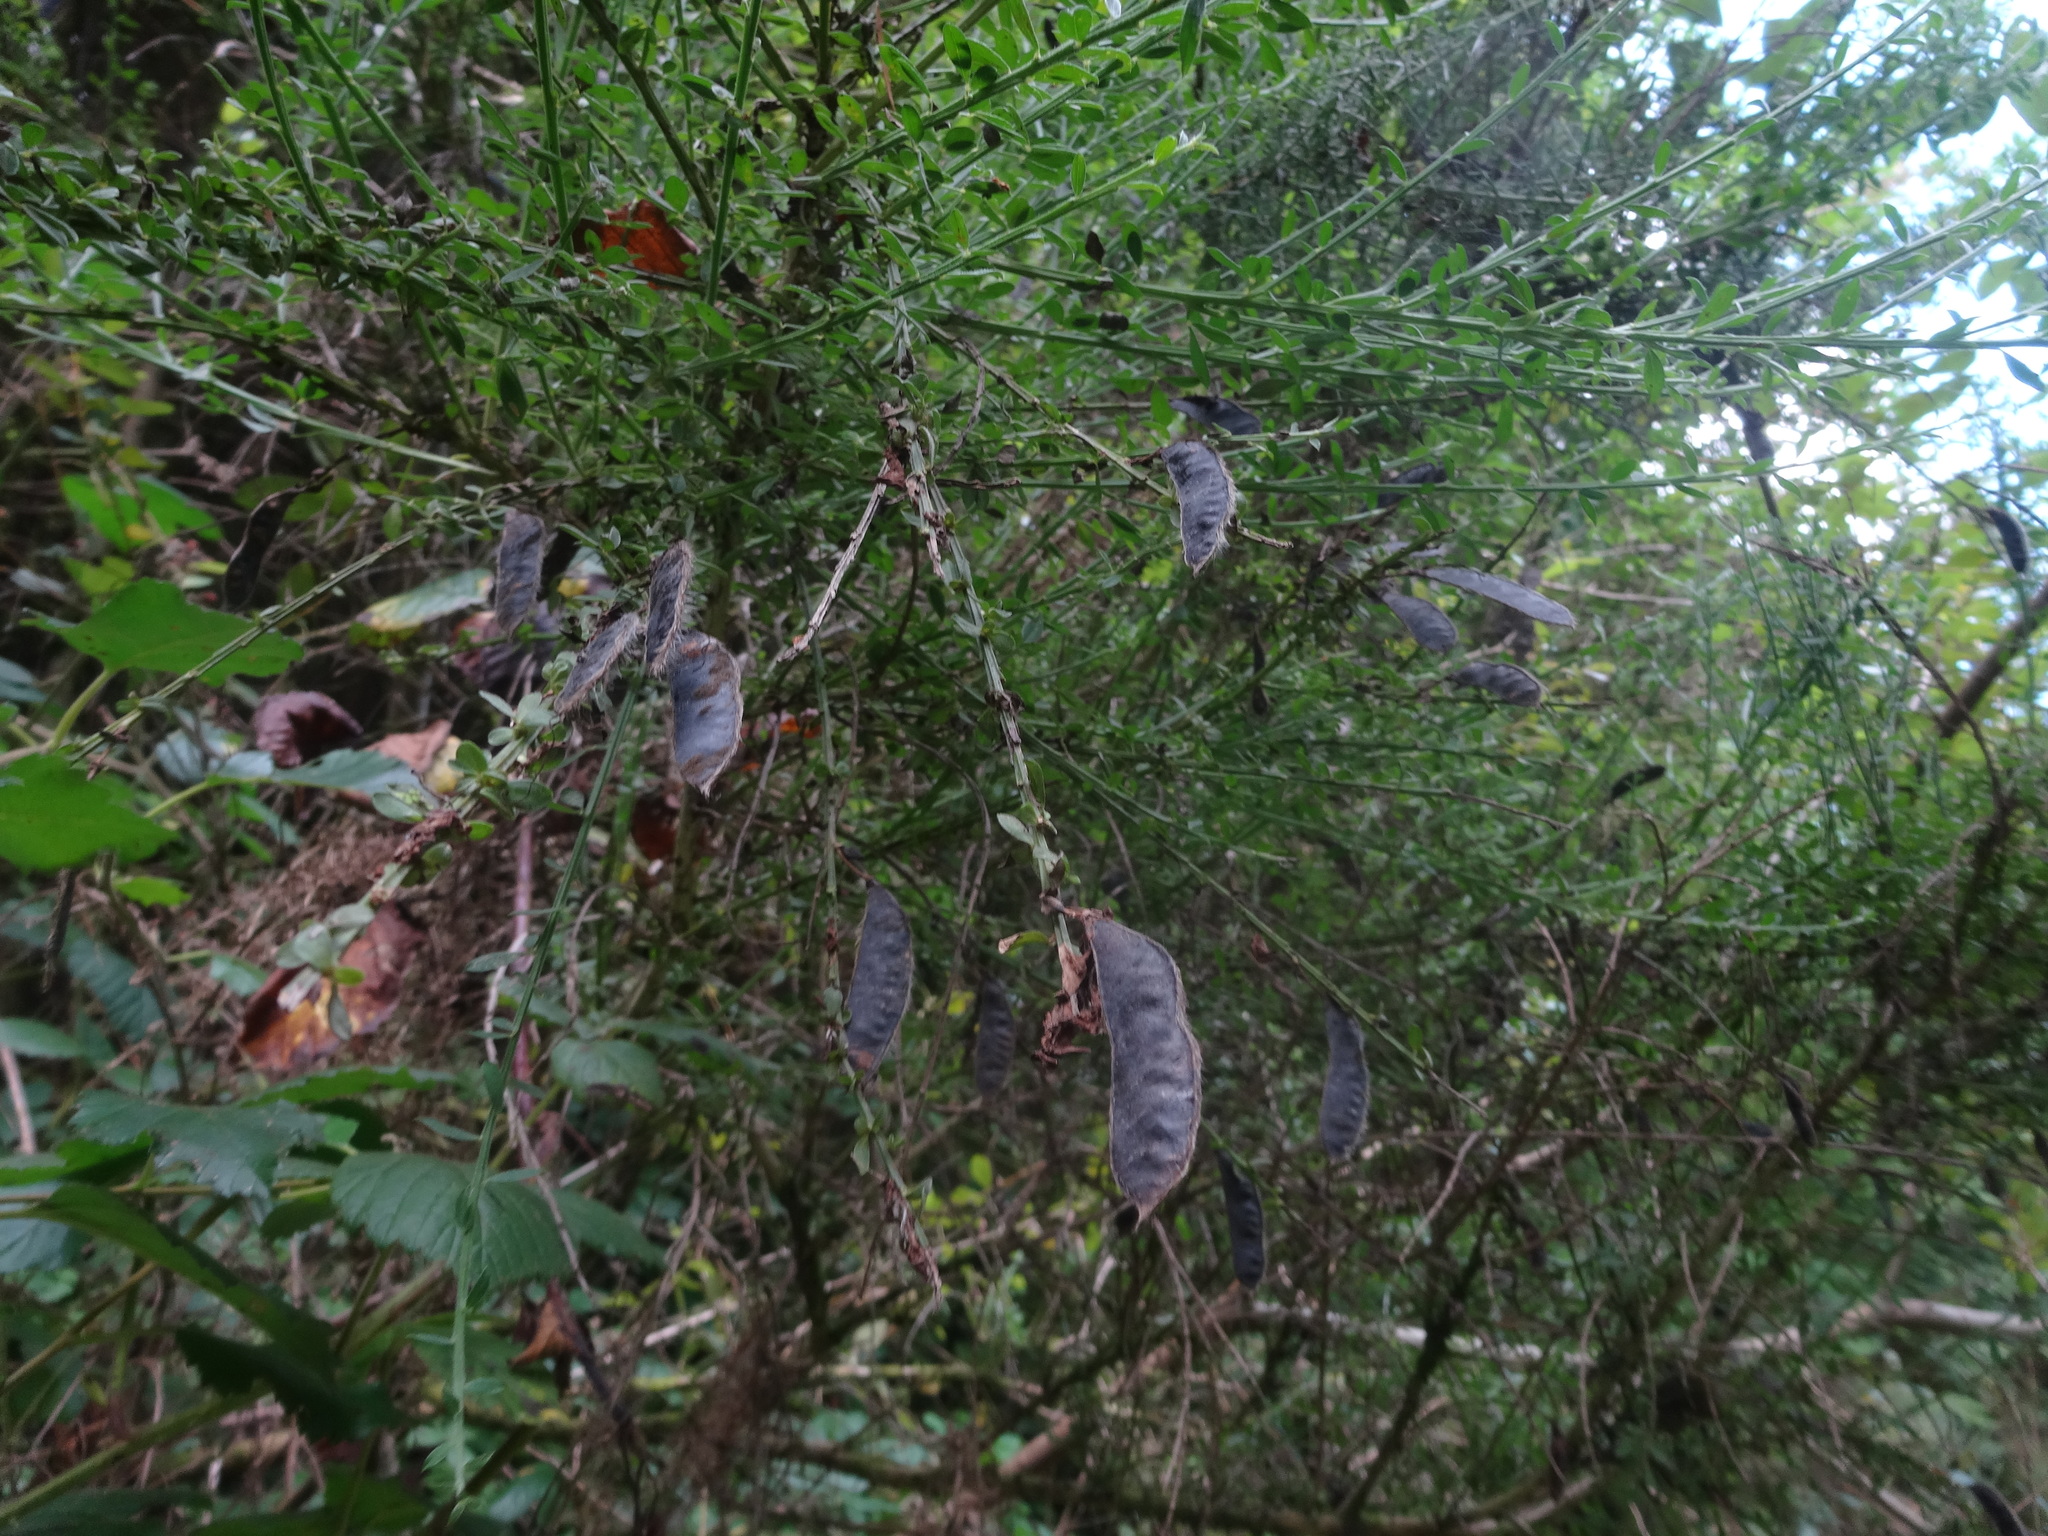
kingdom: Plantae
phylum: Tracheophyta
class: Magnoliopsida
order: Fabales
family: Fabaceae
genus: Cytisus
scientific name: Cytisus scoparius
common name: Scotch broom
